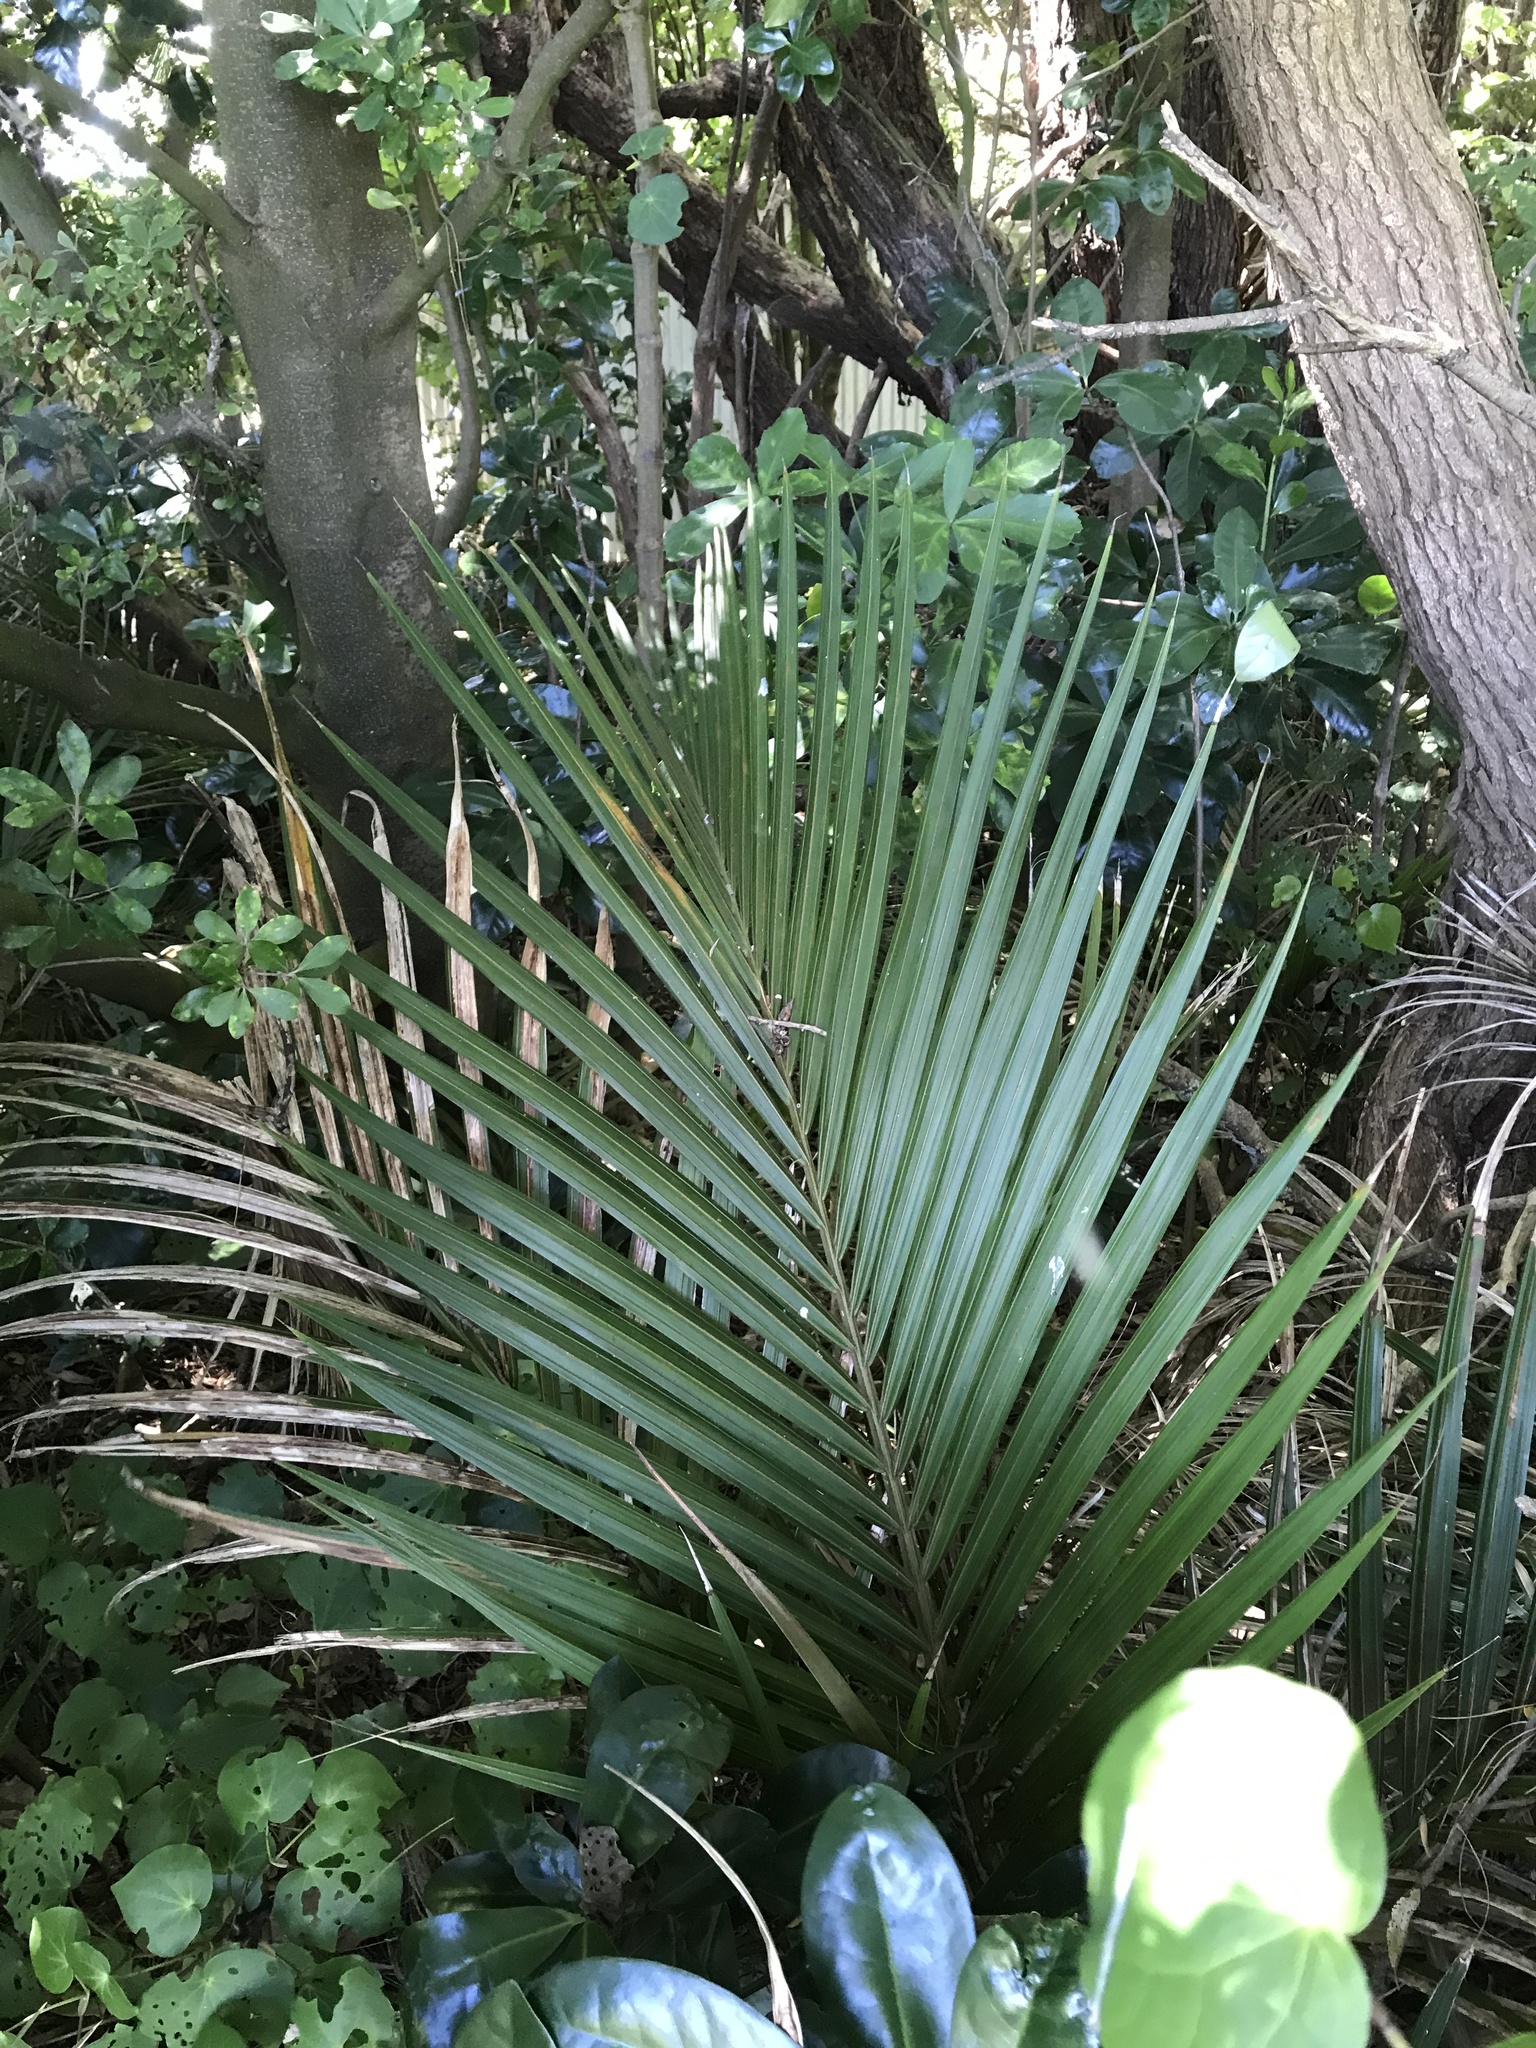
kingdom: Plantae
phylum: Tracheophyta
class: Liliopsida
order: Arecales
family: Arecaceae
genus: Rhopalostylis
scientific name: Rhopalostylis sapida
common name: Feather-duster palm
